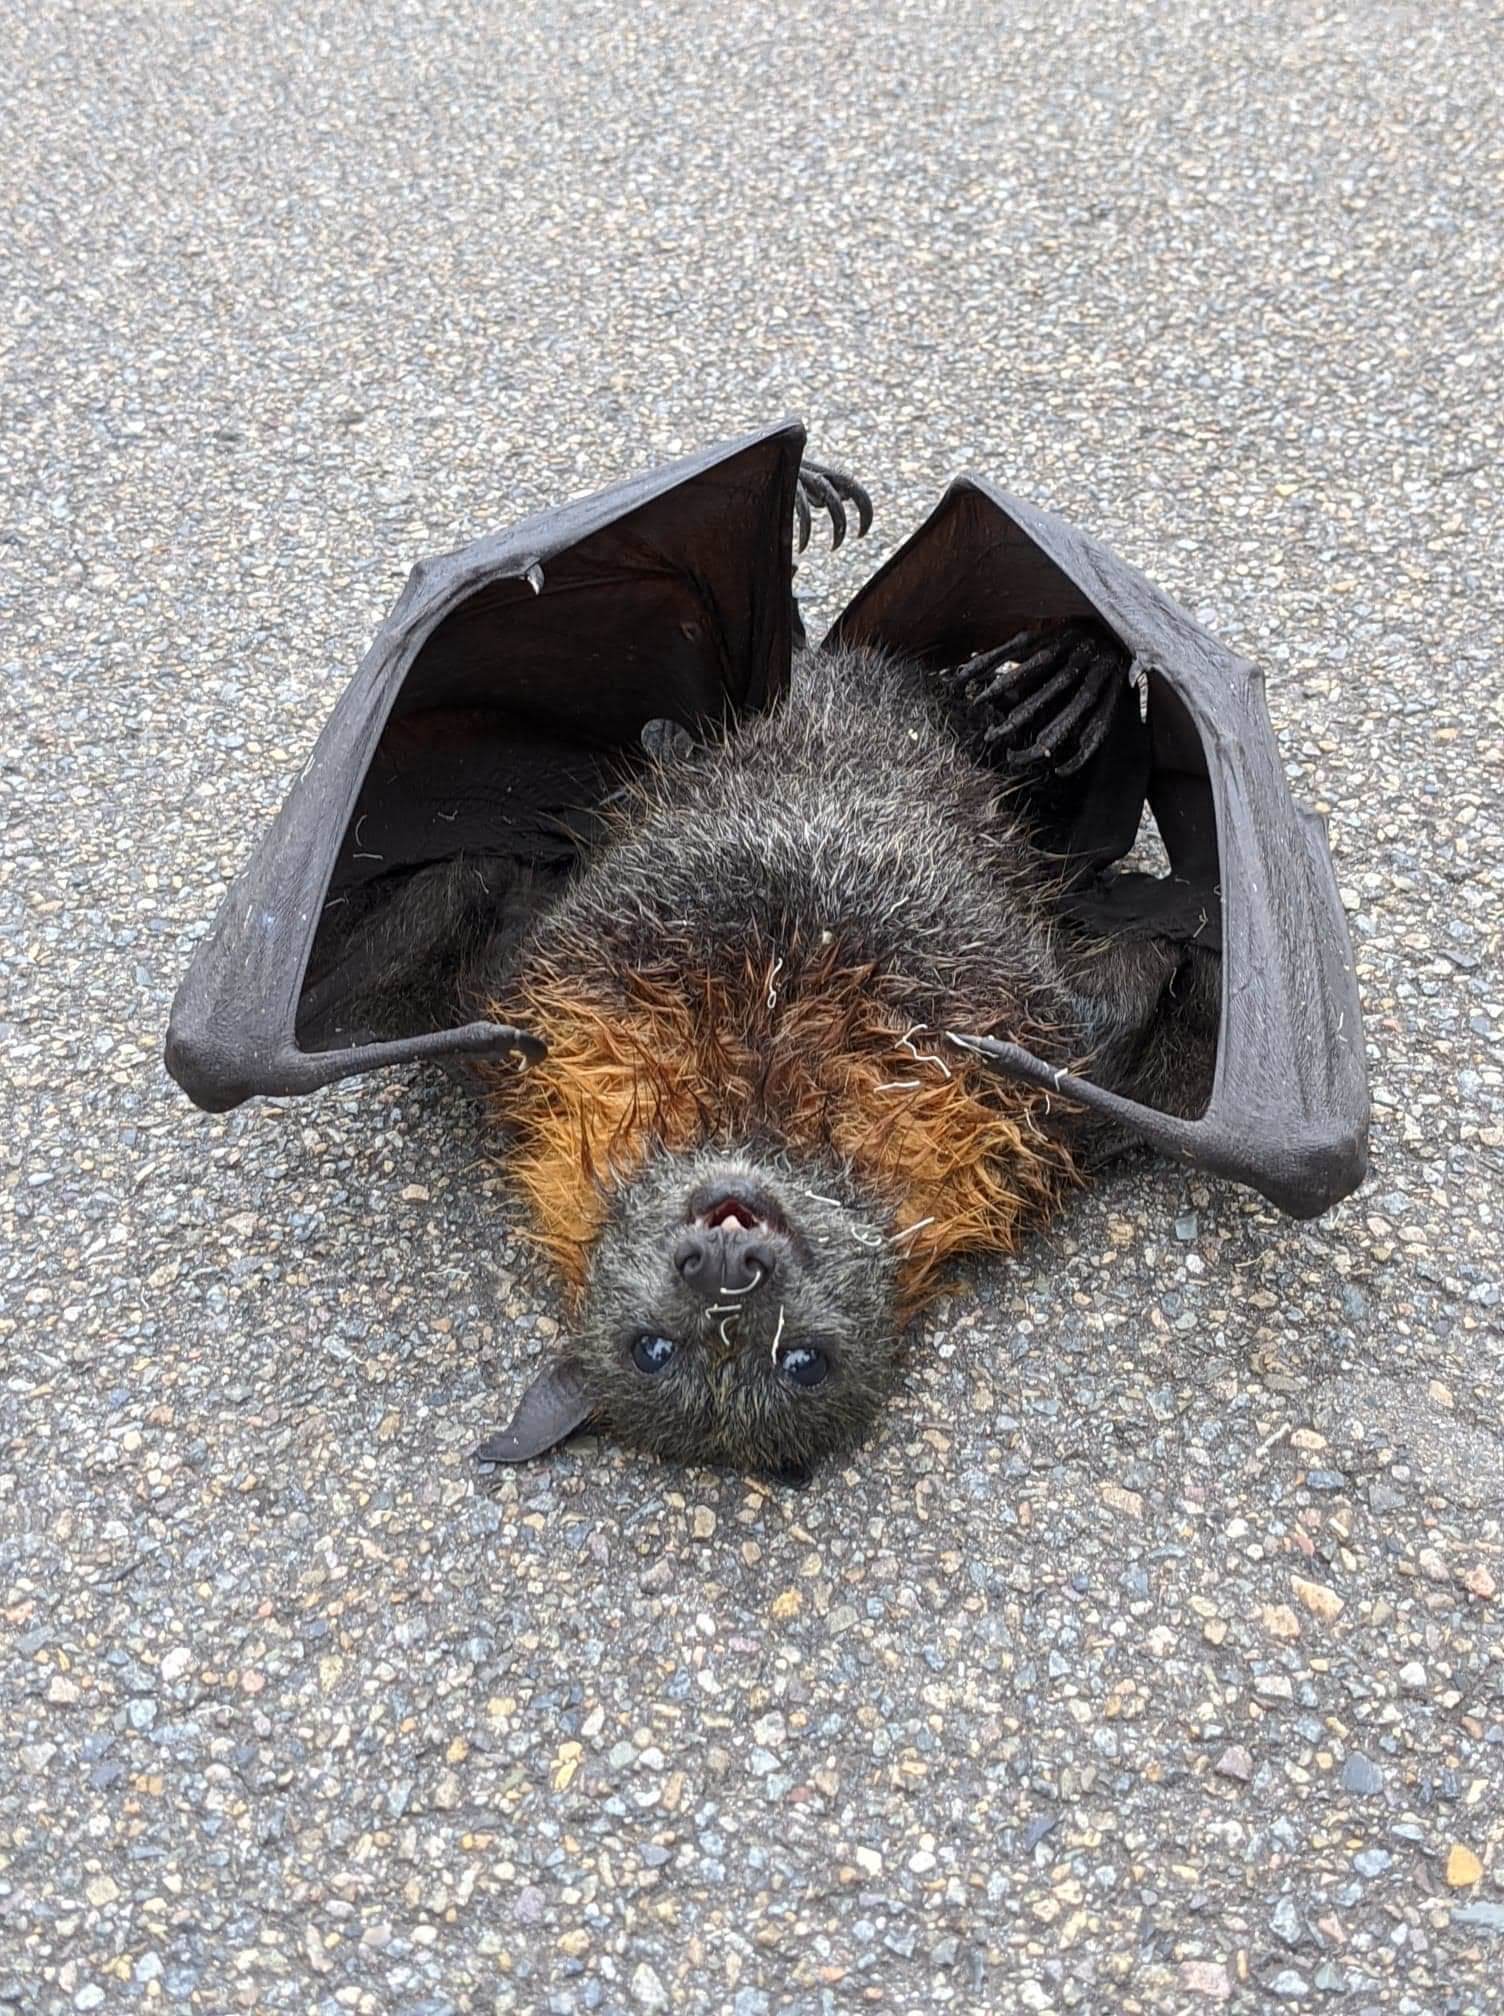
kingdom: Animalia
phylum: Chordata
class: Mammalia
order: Chiroptera
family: Pteropodidae
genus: Pteropus
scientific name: Pteropus poliocephalus
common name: Gray-headed flying fox
